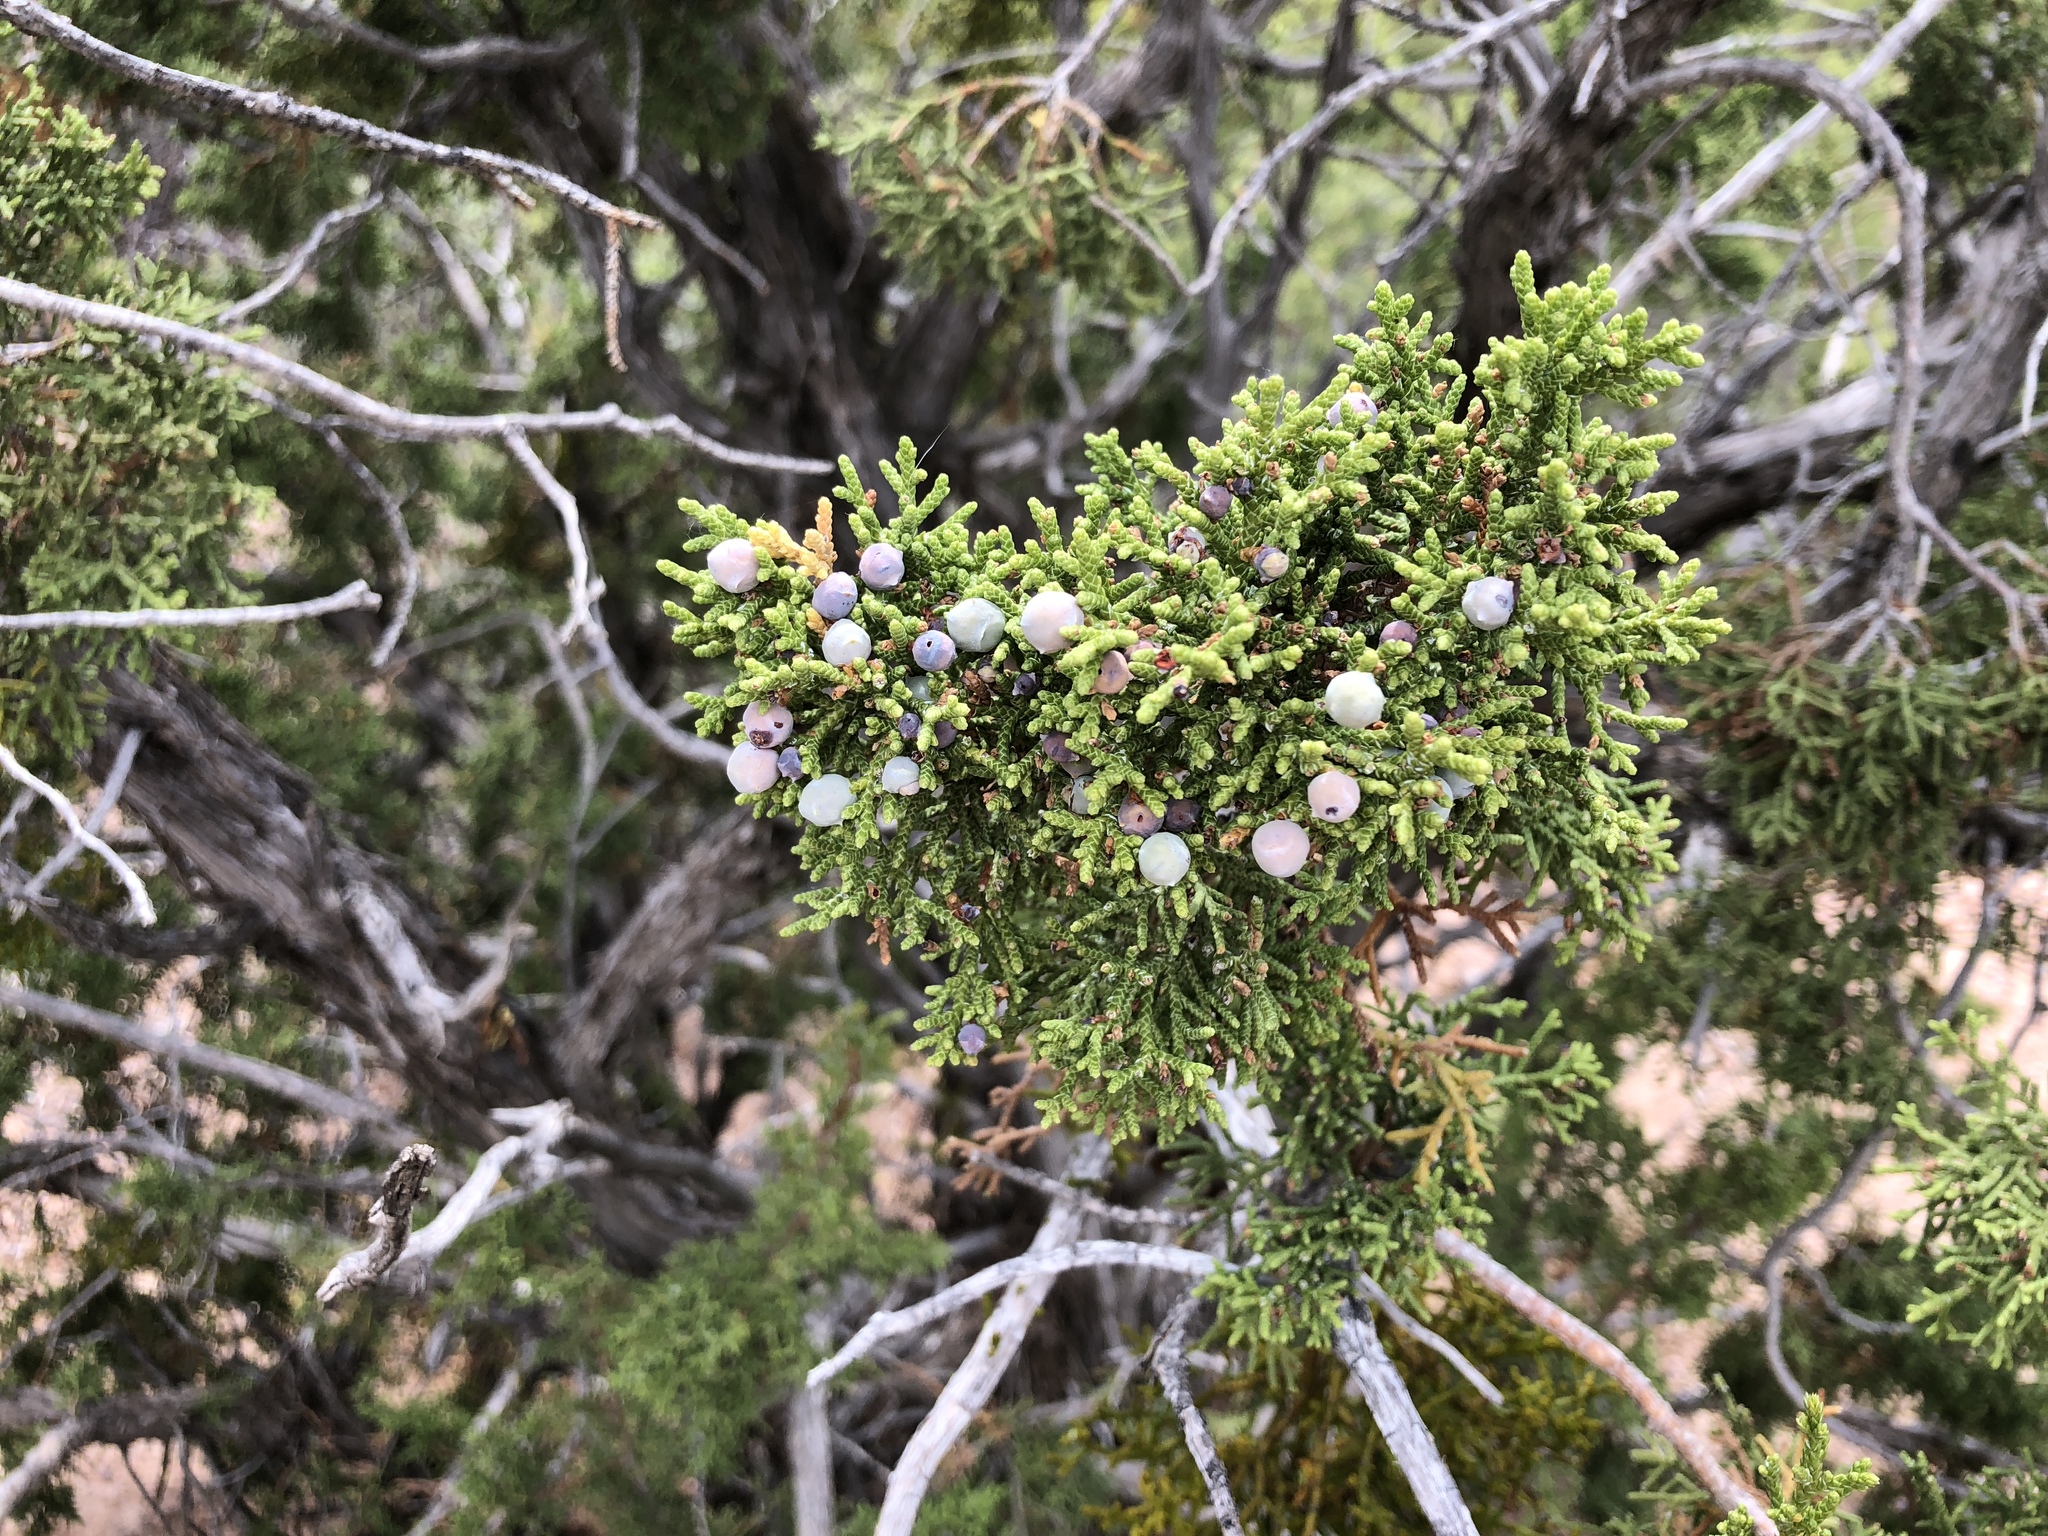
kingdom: Plantae
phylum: Tracheophyta
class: Pinopsida
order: Pinales
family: Cupressaceae
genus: Juniperus
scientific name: Juniperus monosperma
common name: One-seed juniper
